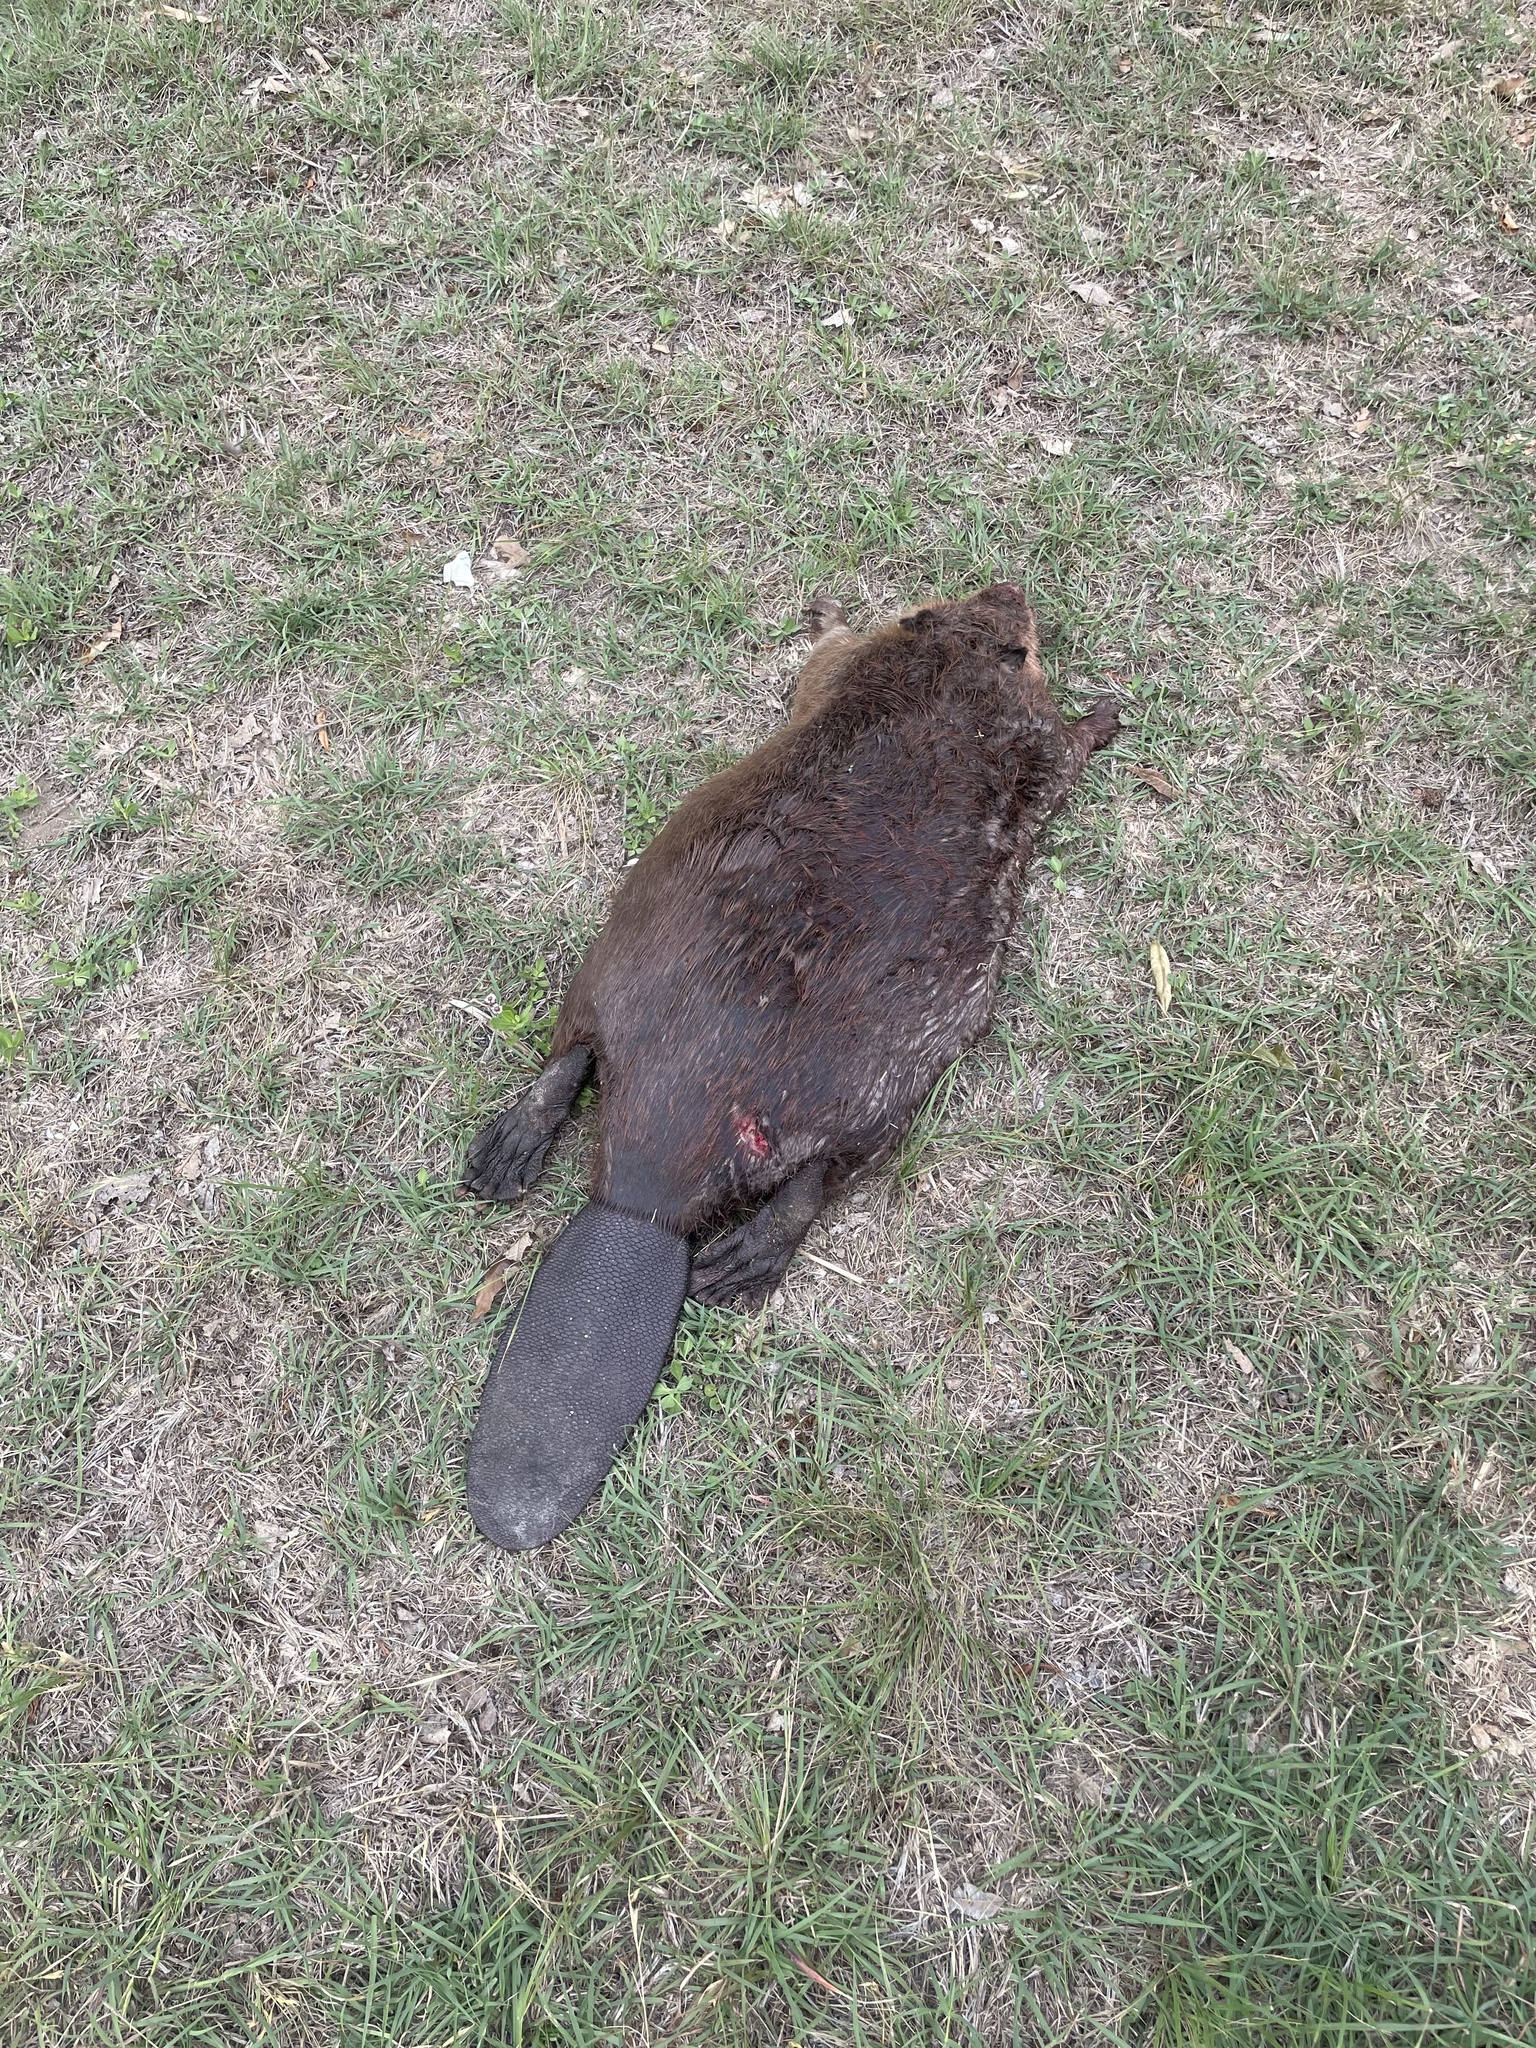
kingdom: Animalia
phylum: Chordata
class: Mammalia
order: Rodentia
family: Castoridae
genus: Castor
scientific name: Castor canadensis
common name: American beaver
